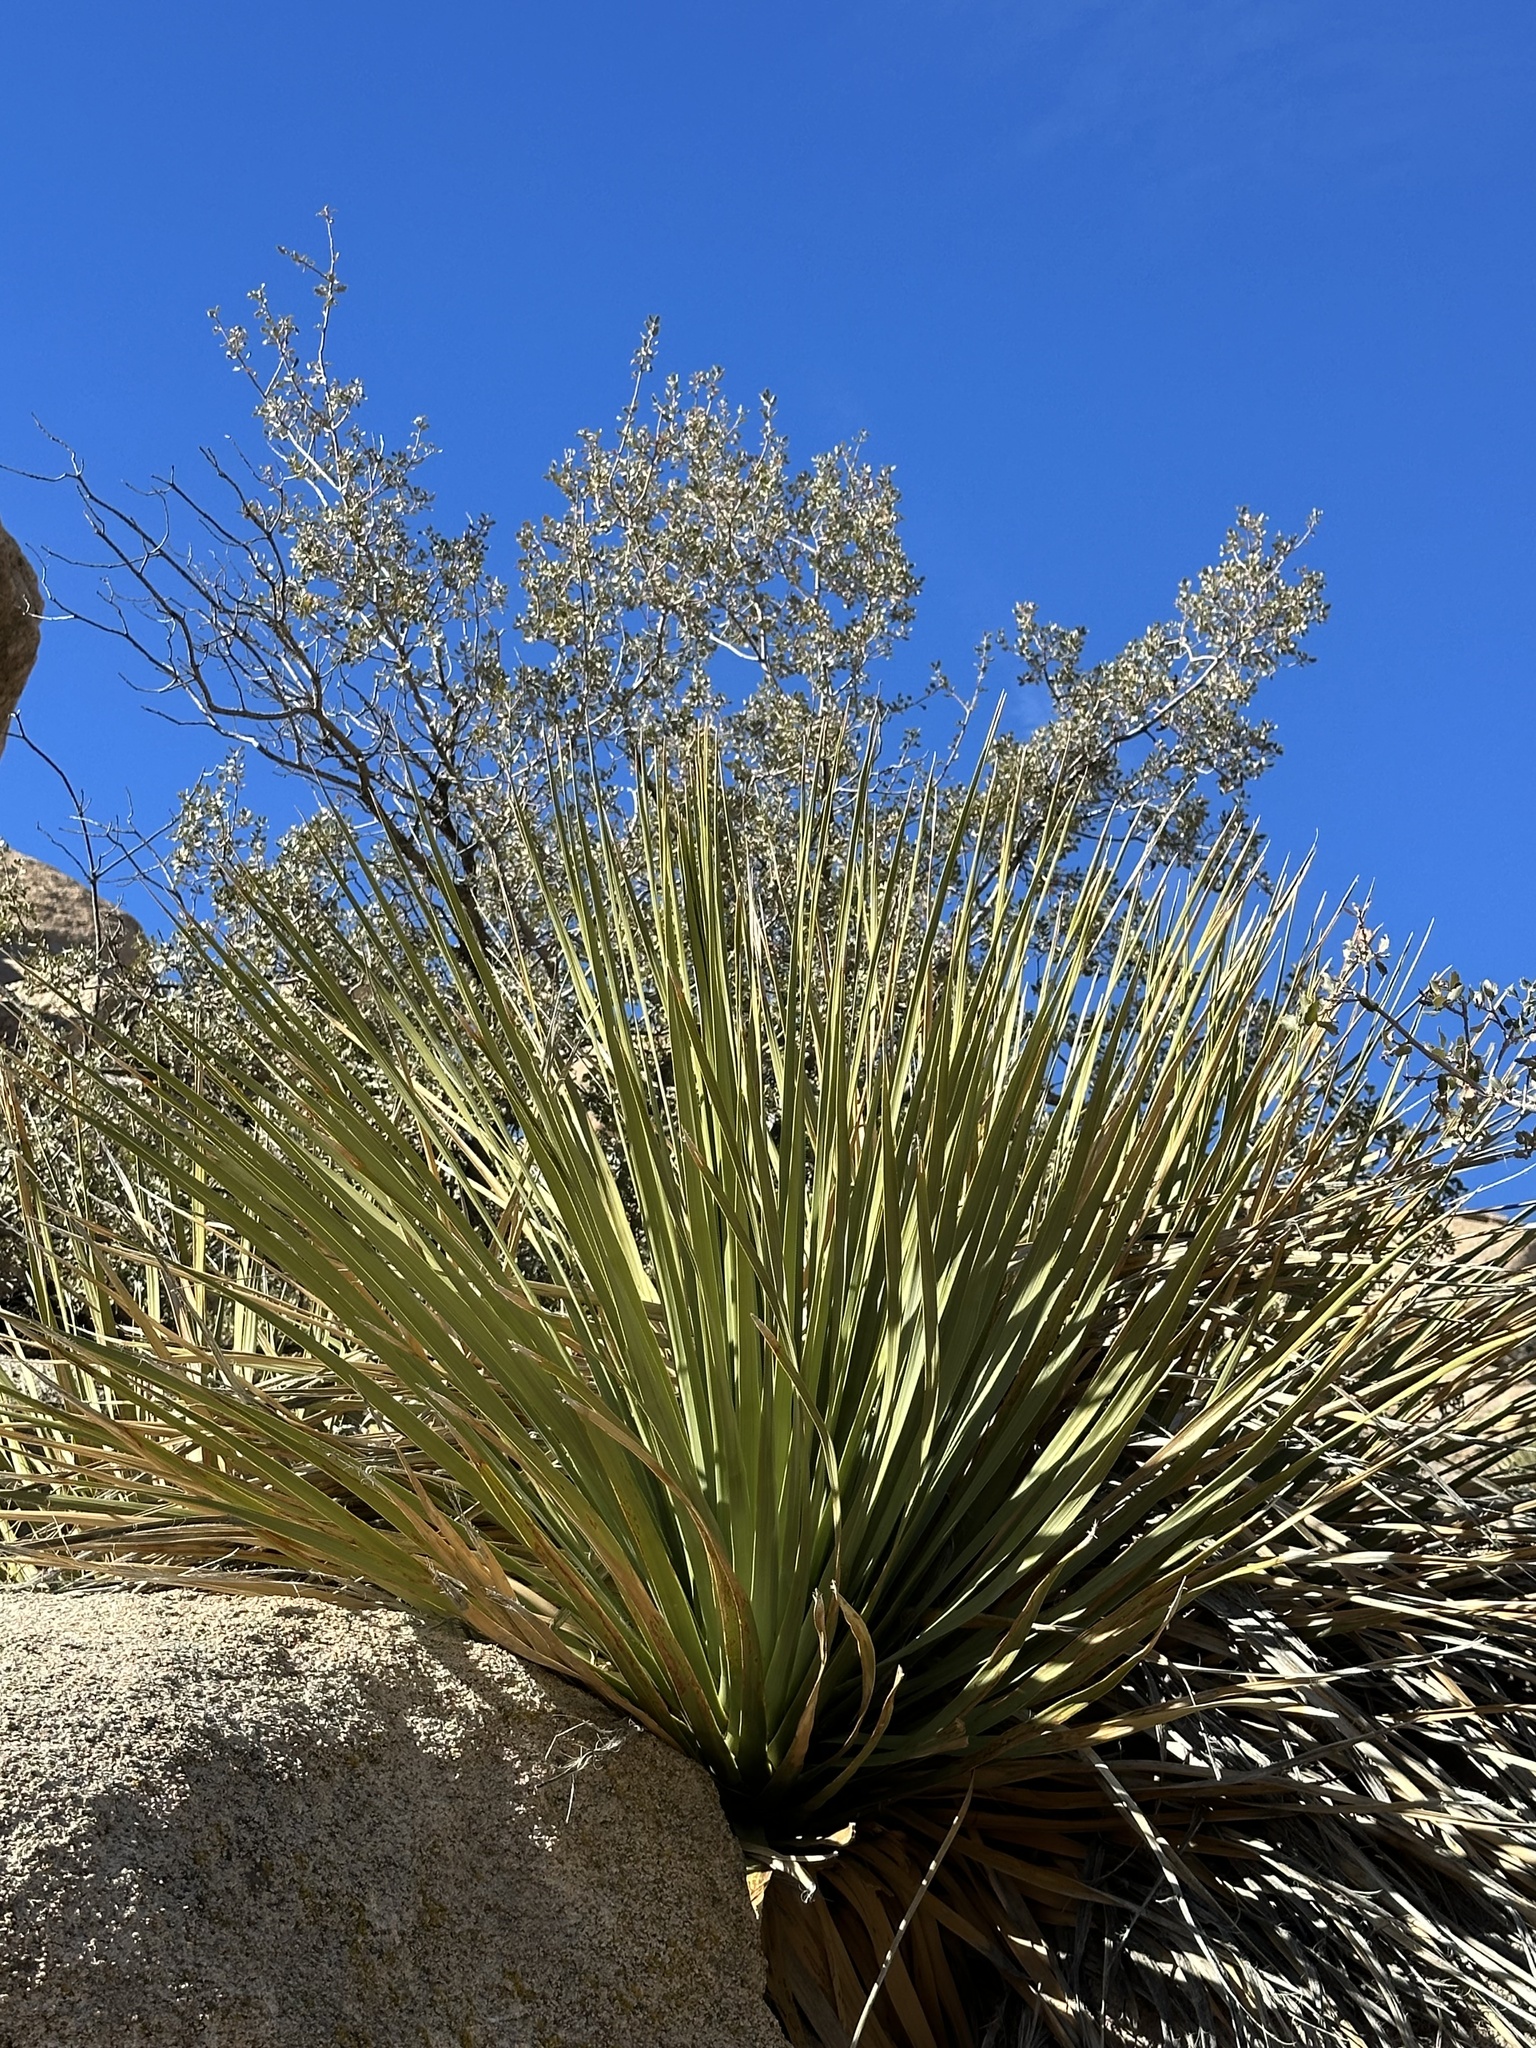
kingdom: Plantae
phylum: Tracheophyta
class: Liliopsida
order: Asparagales
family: Asparagaceae
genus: Nolina
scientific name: Nolina parryi
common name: Parry nolina
